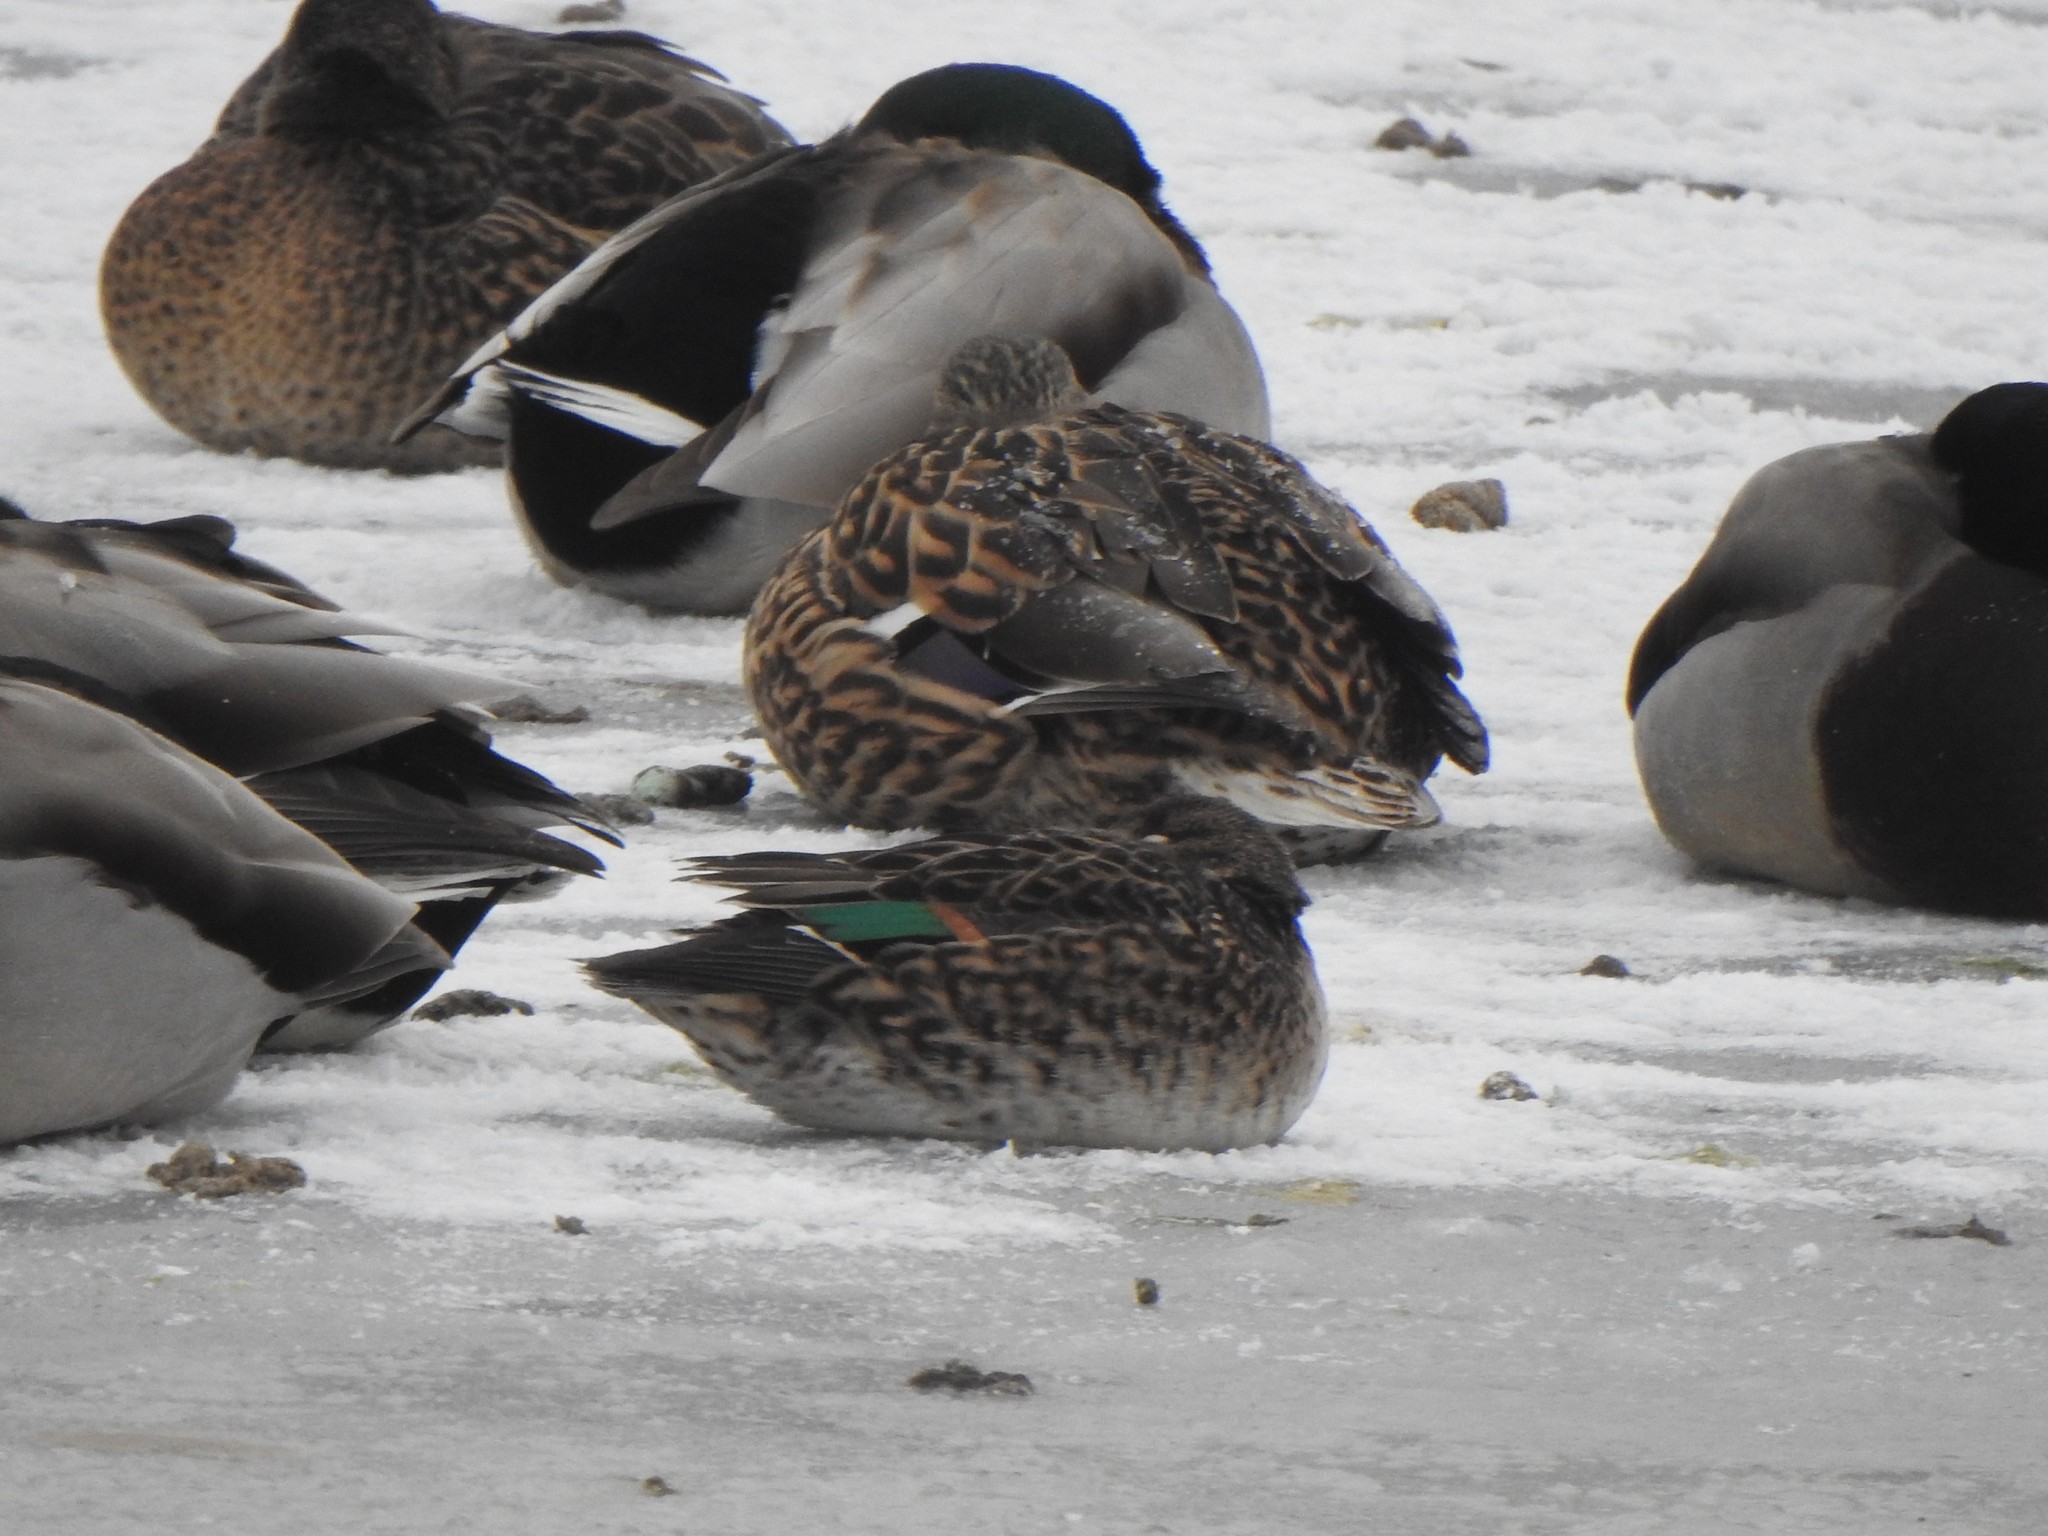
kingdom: Animalia
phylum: Chordata
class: Aves
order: Anseriformes
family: Anatidae
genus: Anas
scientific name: Anas carolinensis
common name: Green-winged teal
